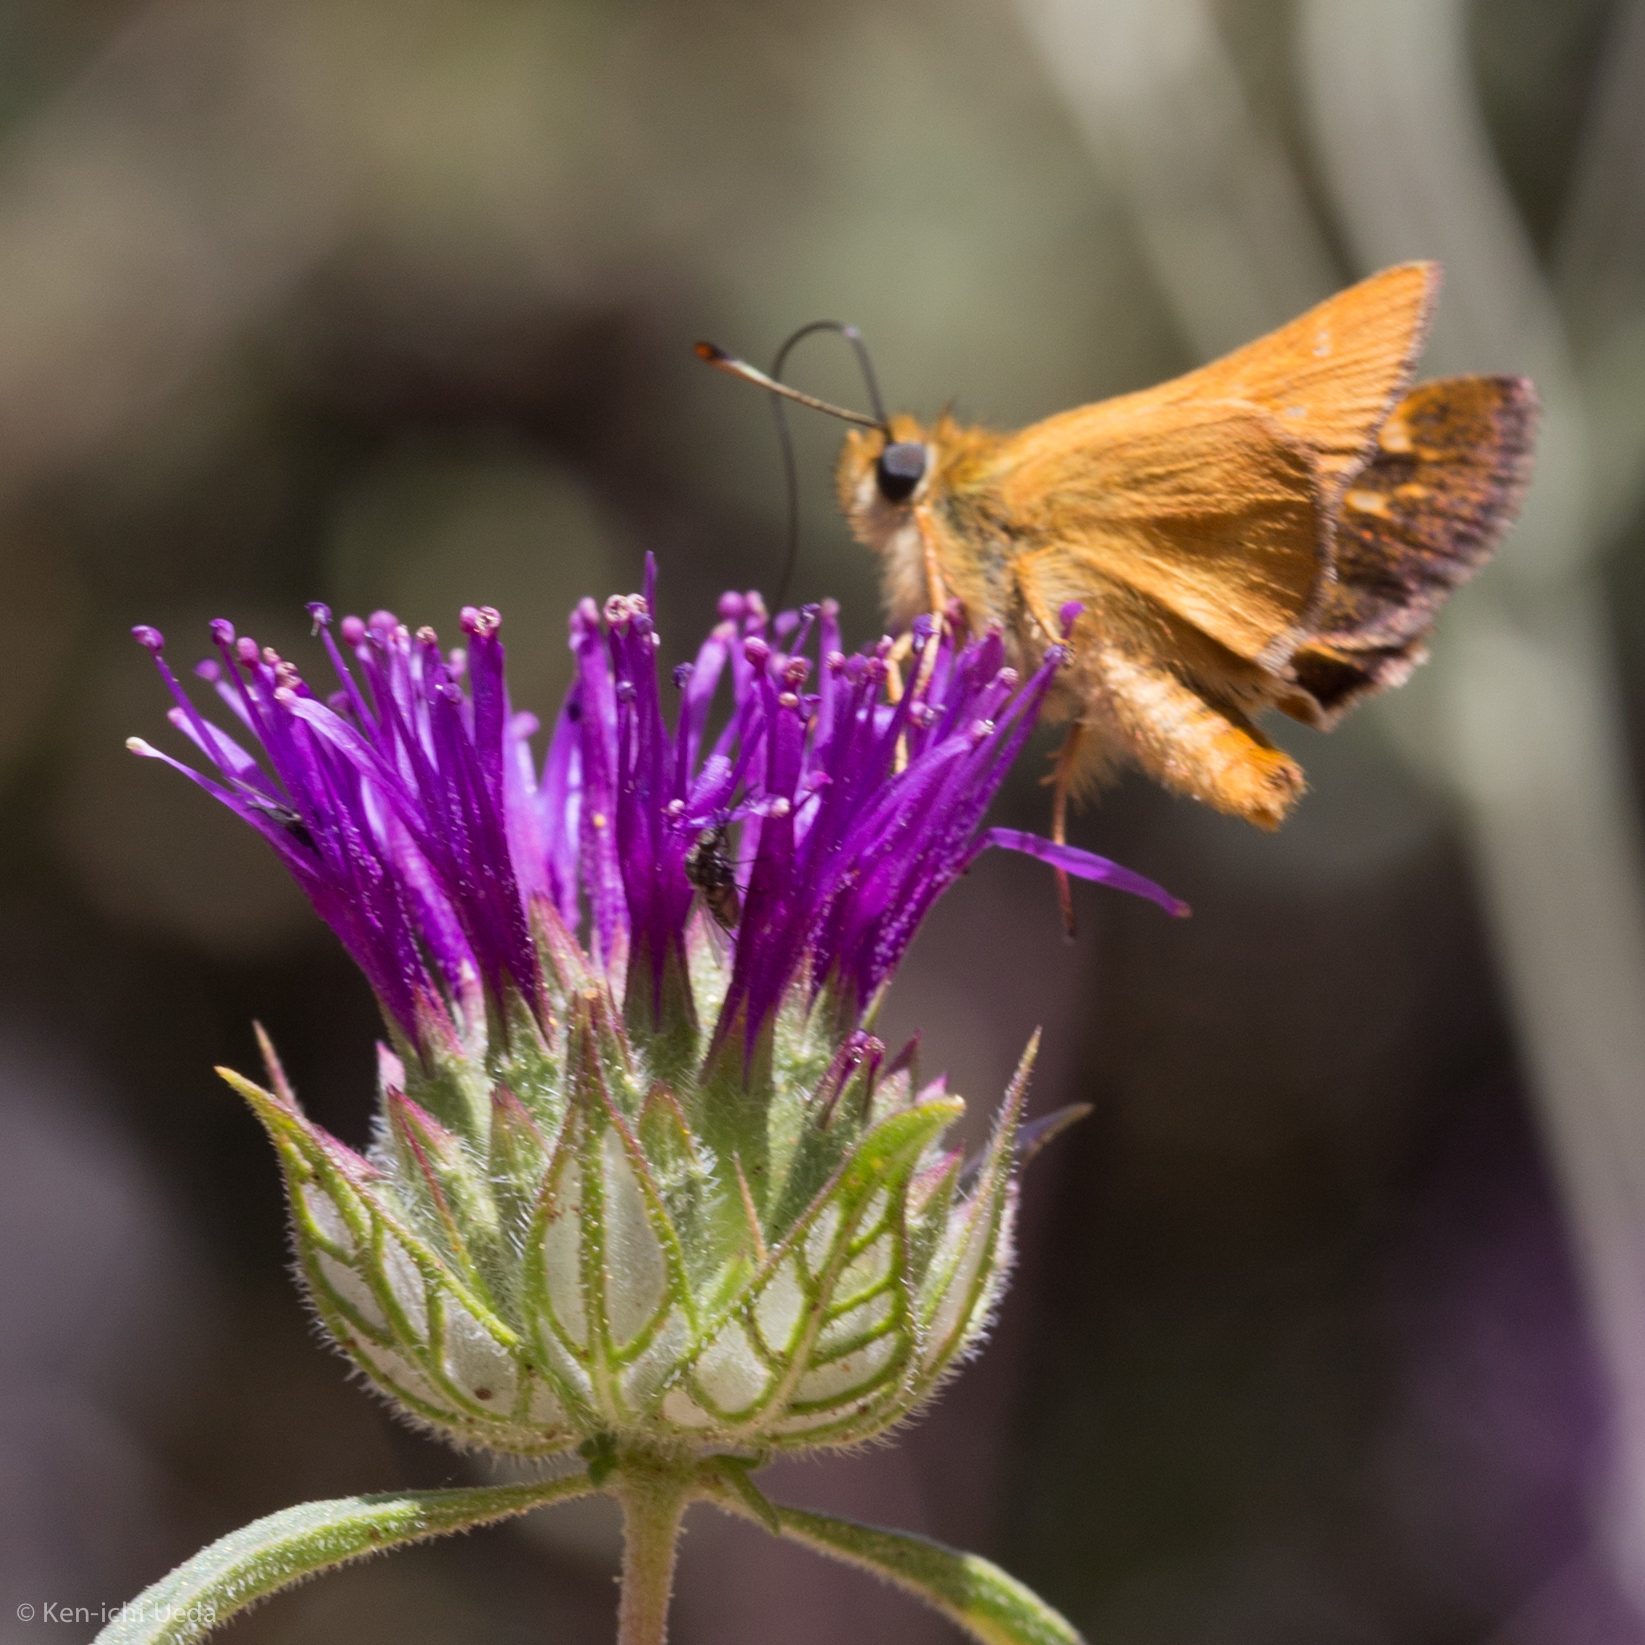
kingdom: Animalia
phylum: Arthropoda
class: Insecta
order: Lepidoptera
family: Hesperiidae
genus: Ochlodes
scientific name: Ochlodes agricola
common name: Rural skipper
